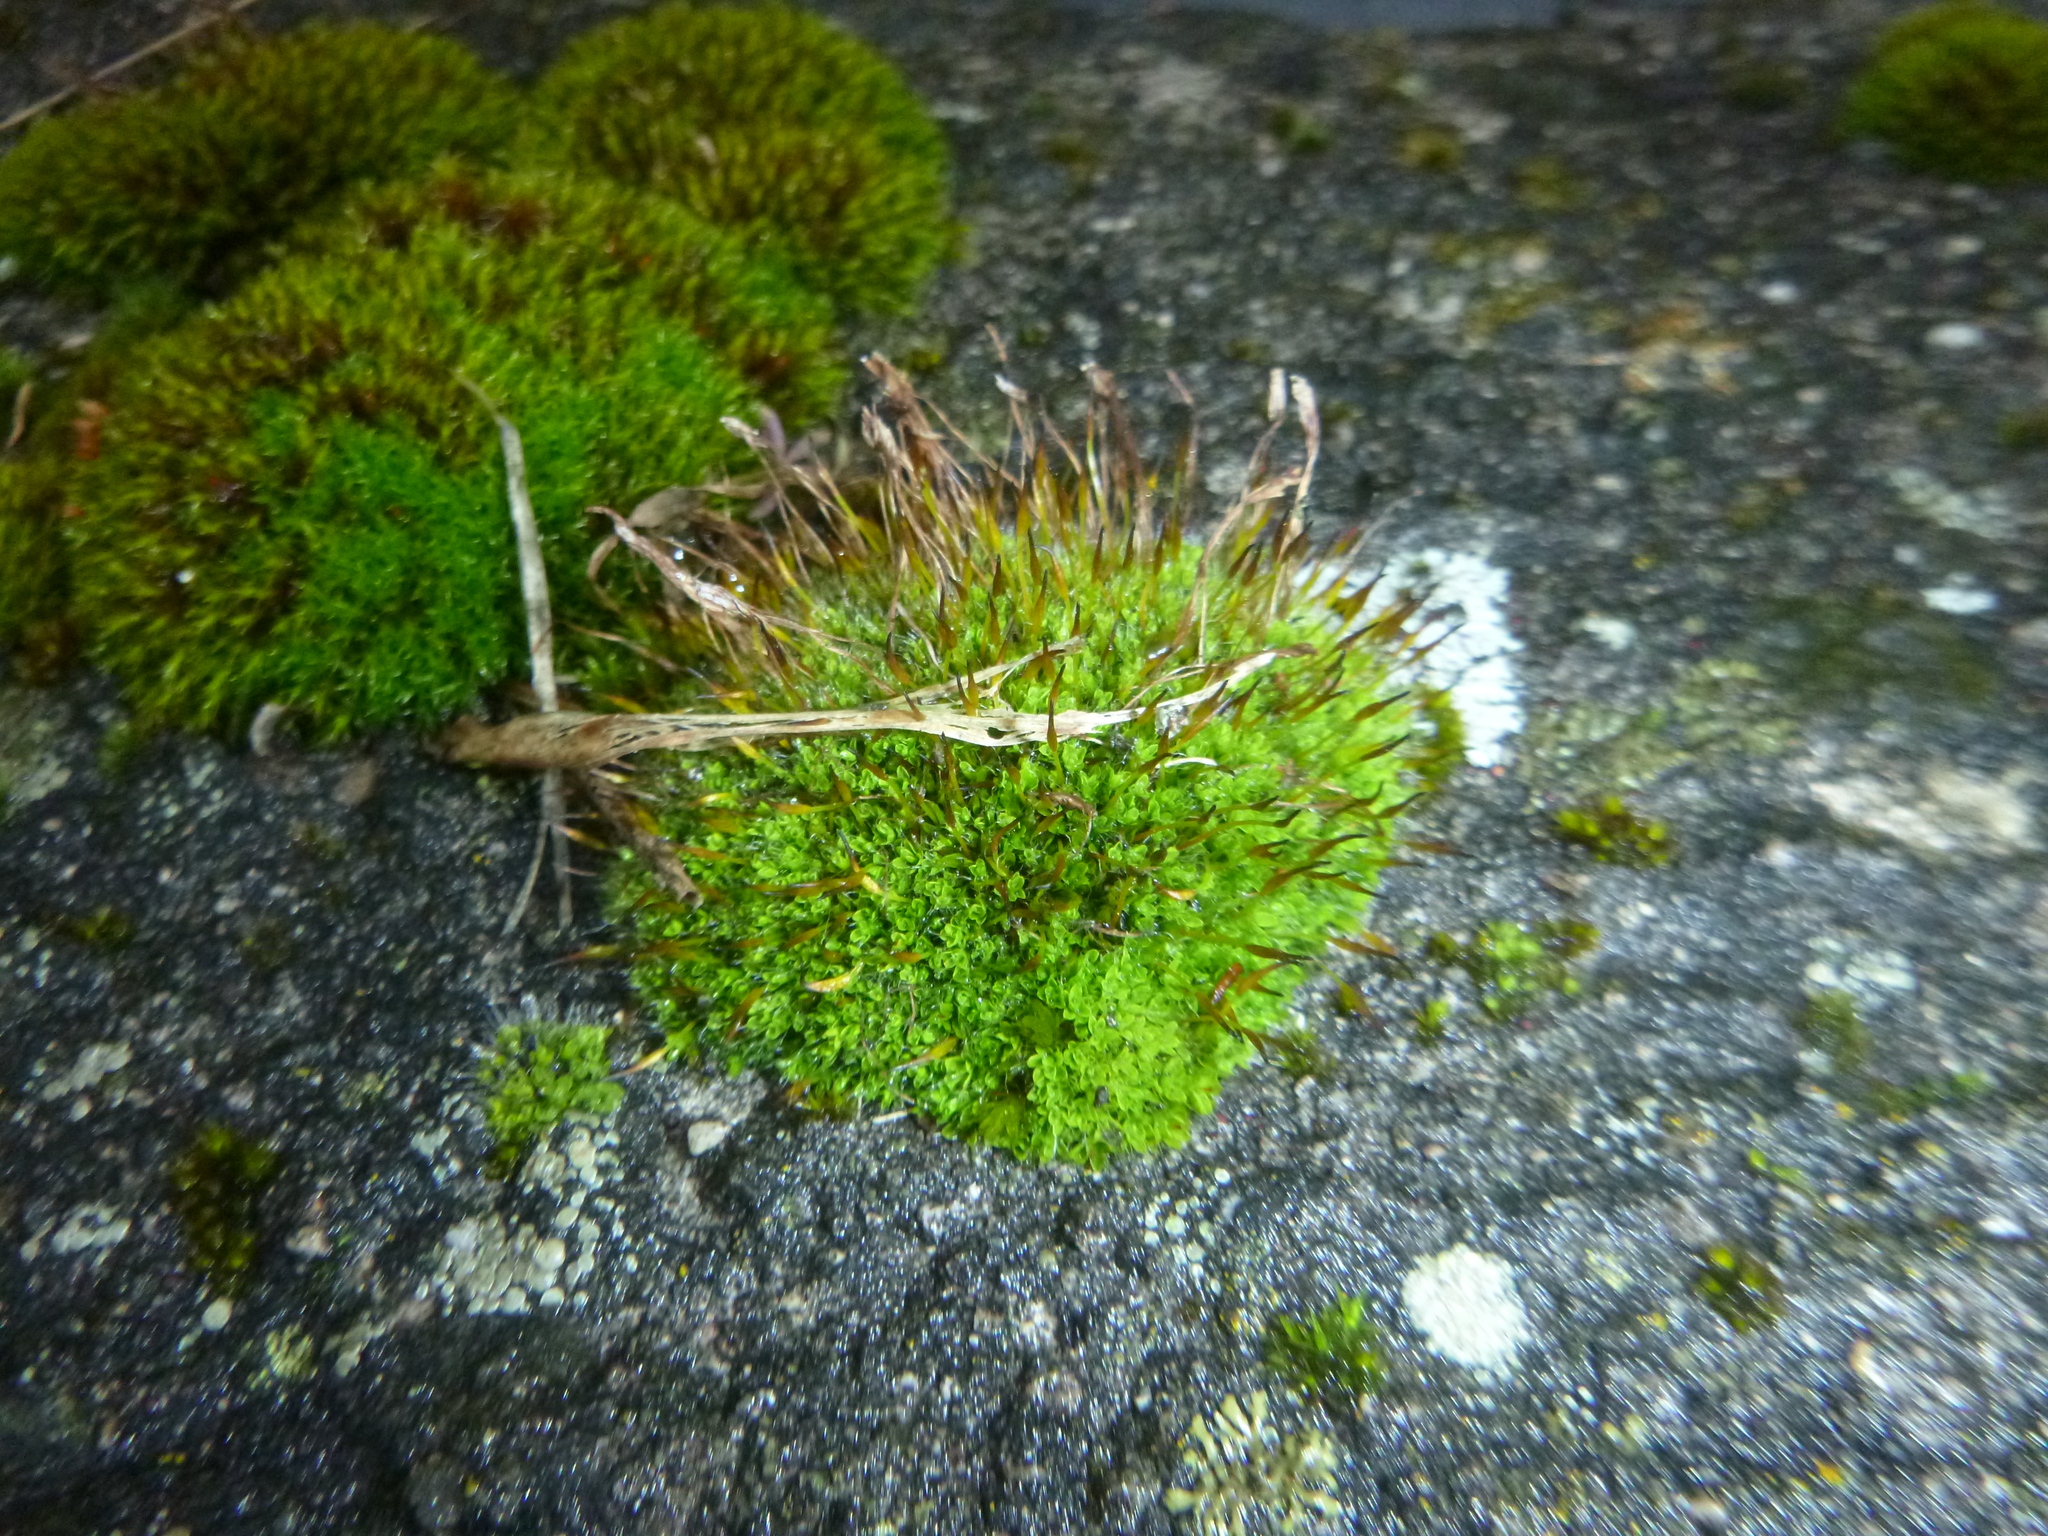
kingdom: Plantae
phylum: Bryophyta
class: Bryopsida
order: Pottiales
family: Pottiaceae
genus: Tortula
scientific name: Tortula muralis
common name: Wall screw-moss
